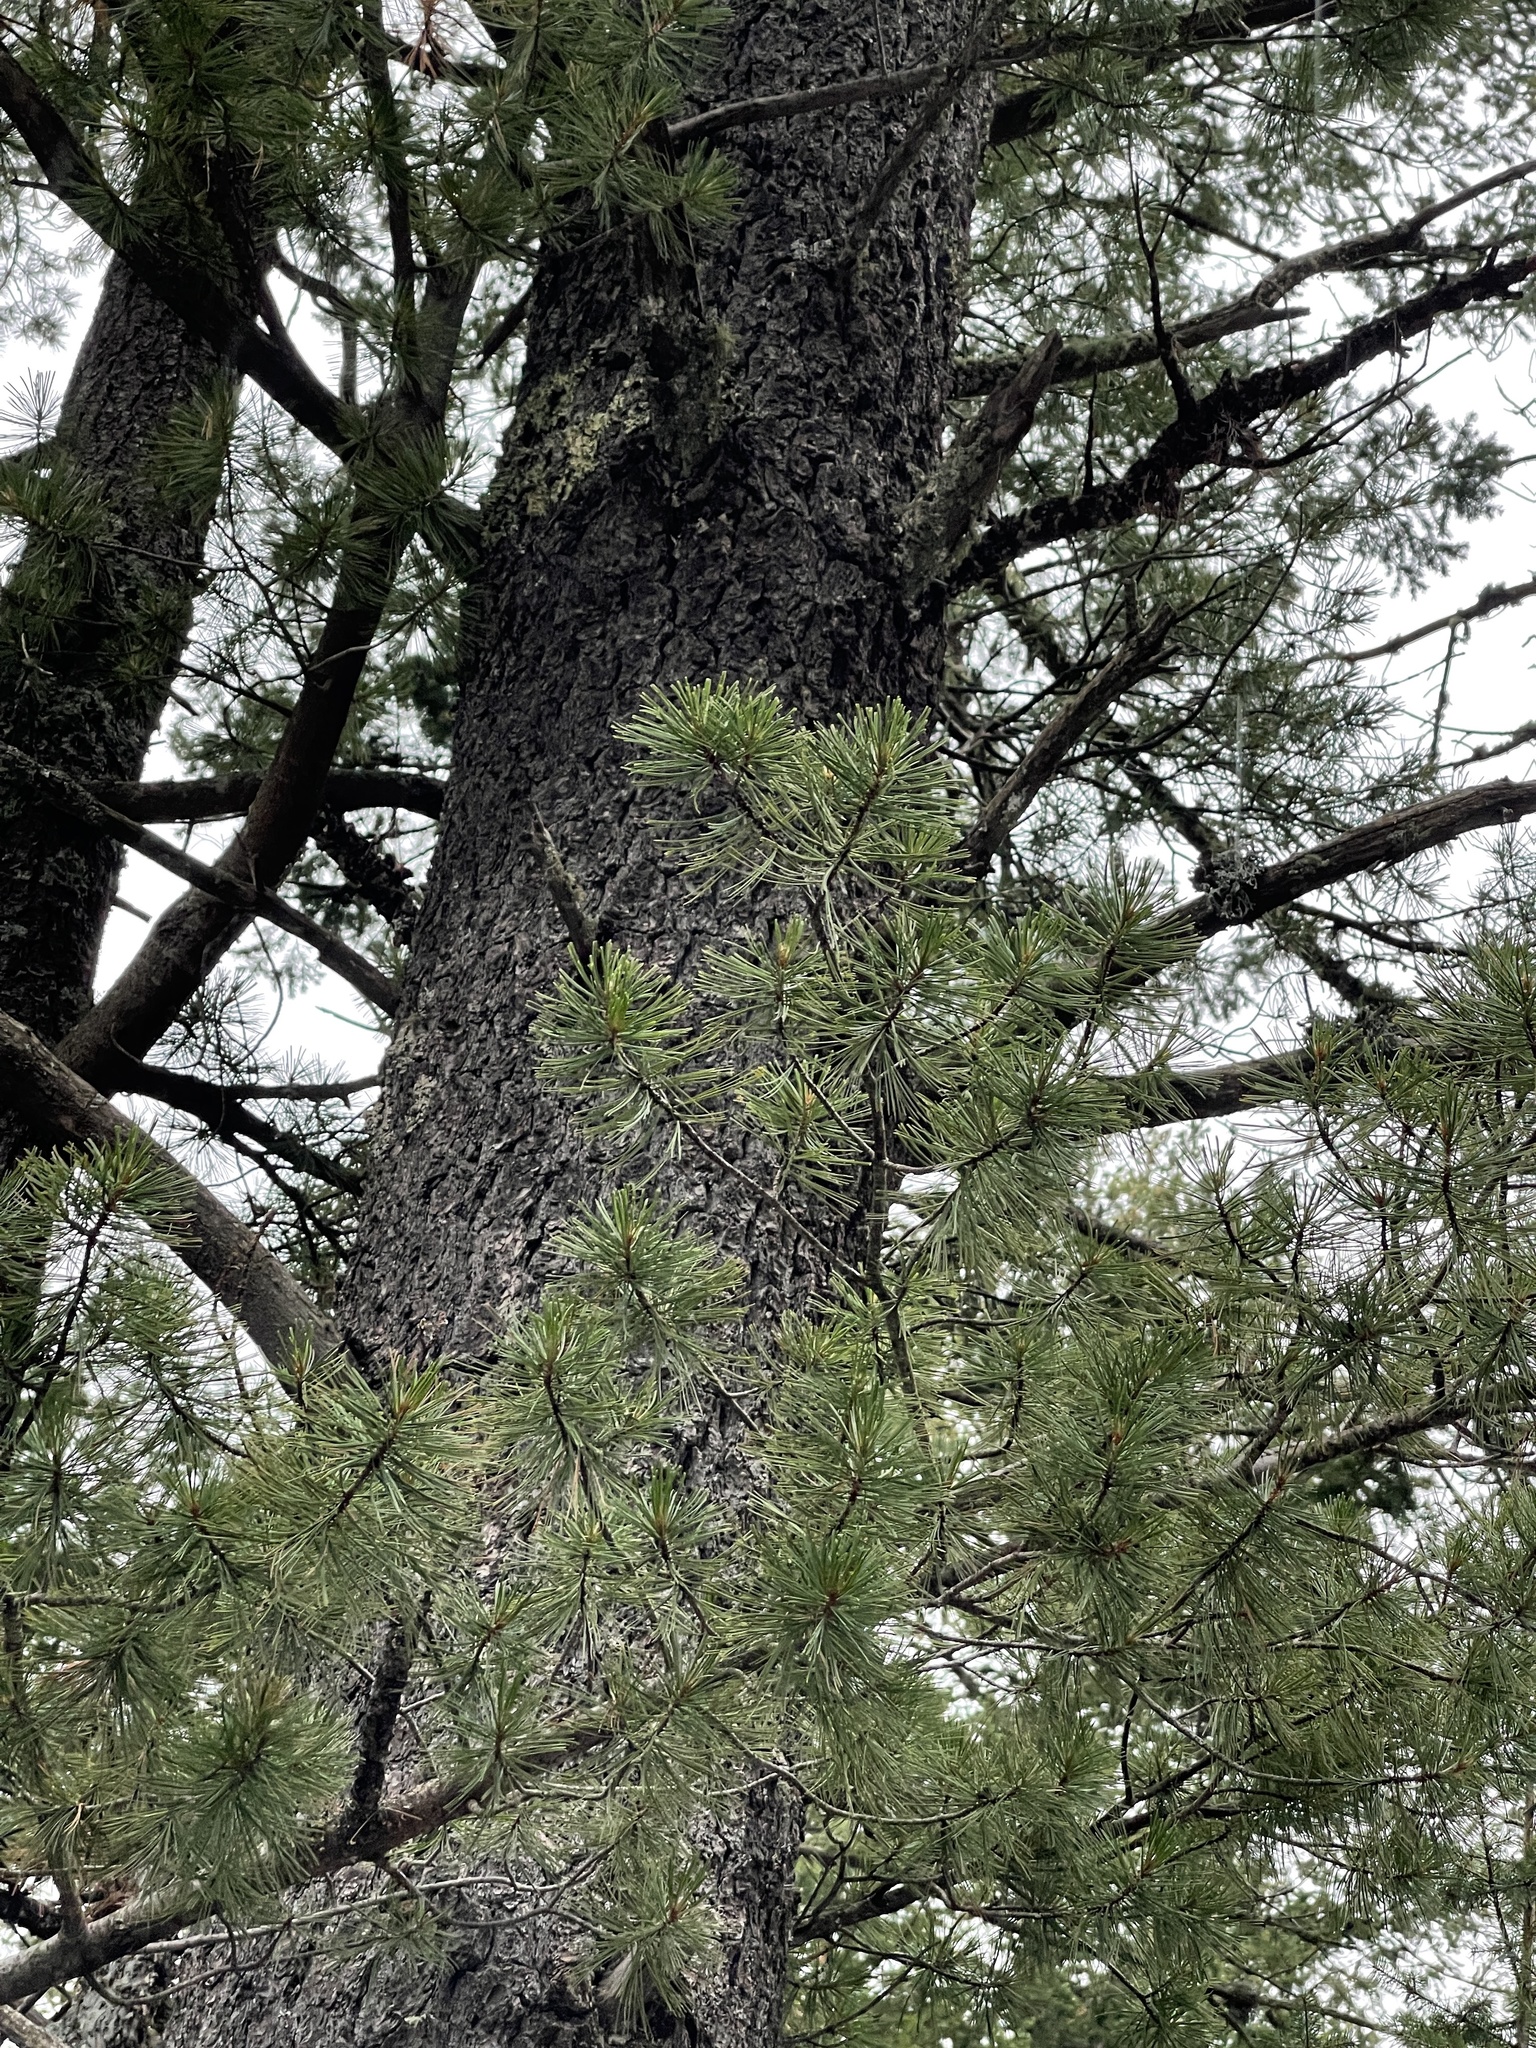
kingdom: Plantae
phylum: Tracheophyta
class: Pinopsida
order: Pinales
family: Pinaceae
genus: Pinus
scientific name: Pinus strobiformis
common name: Southwestern white pine
